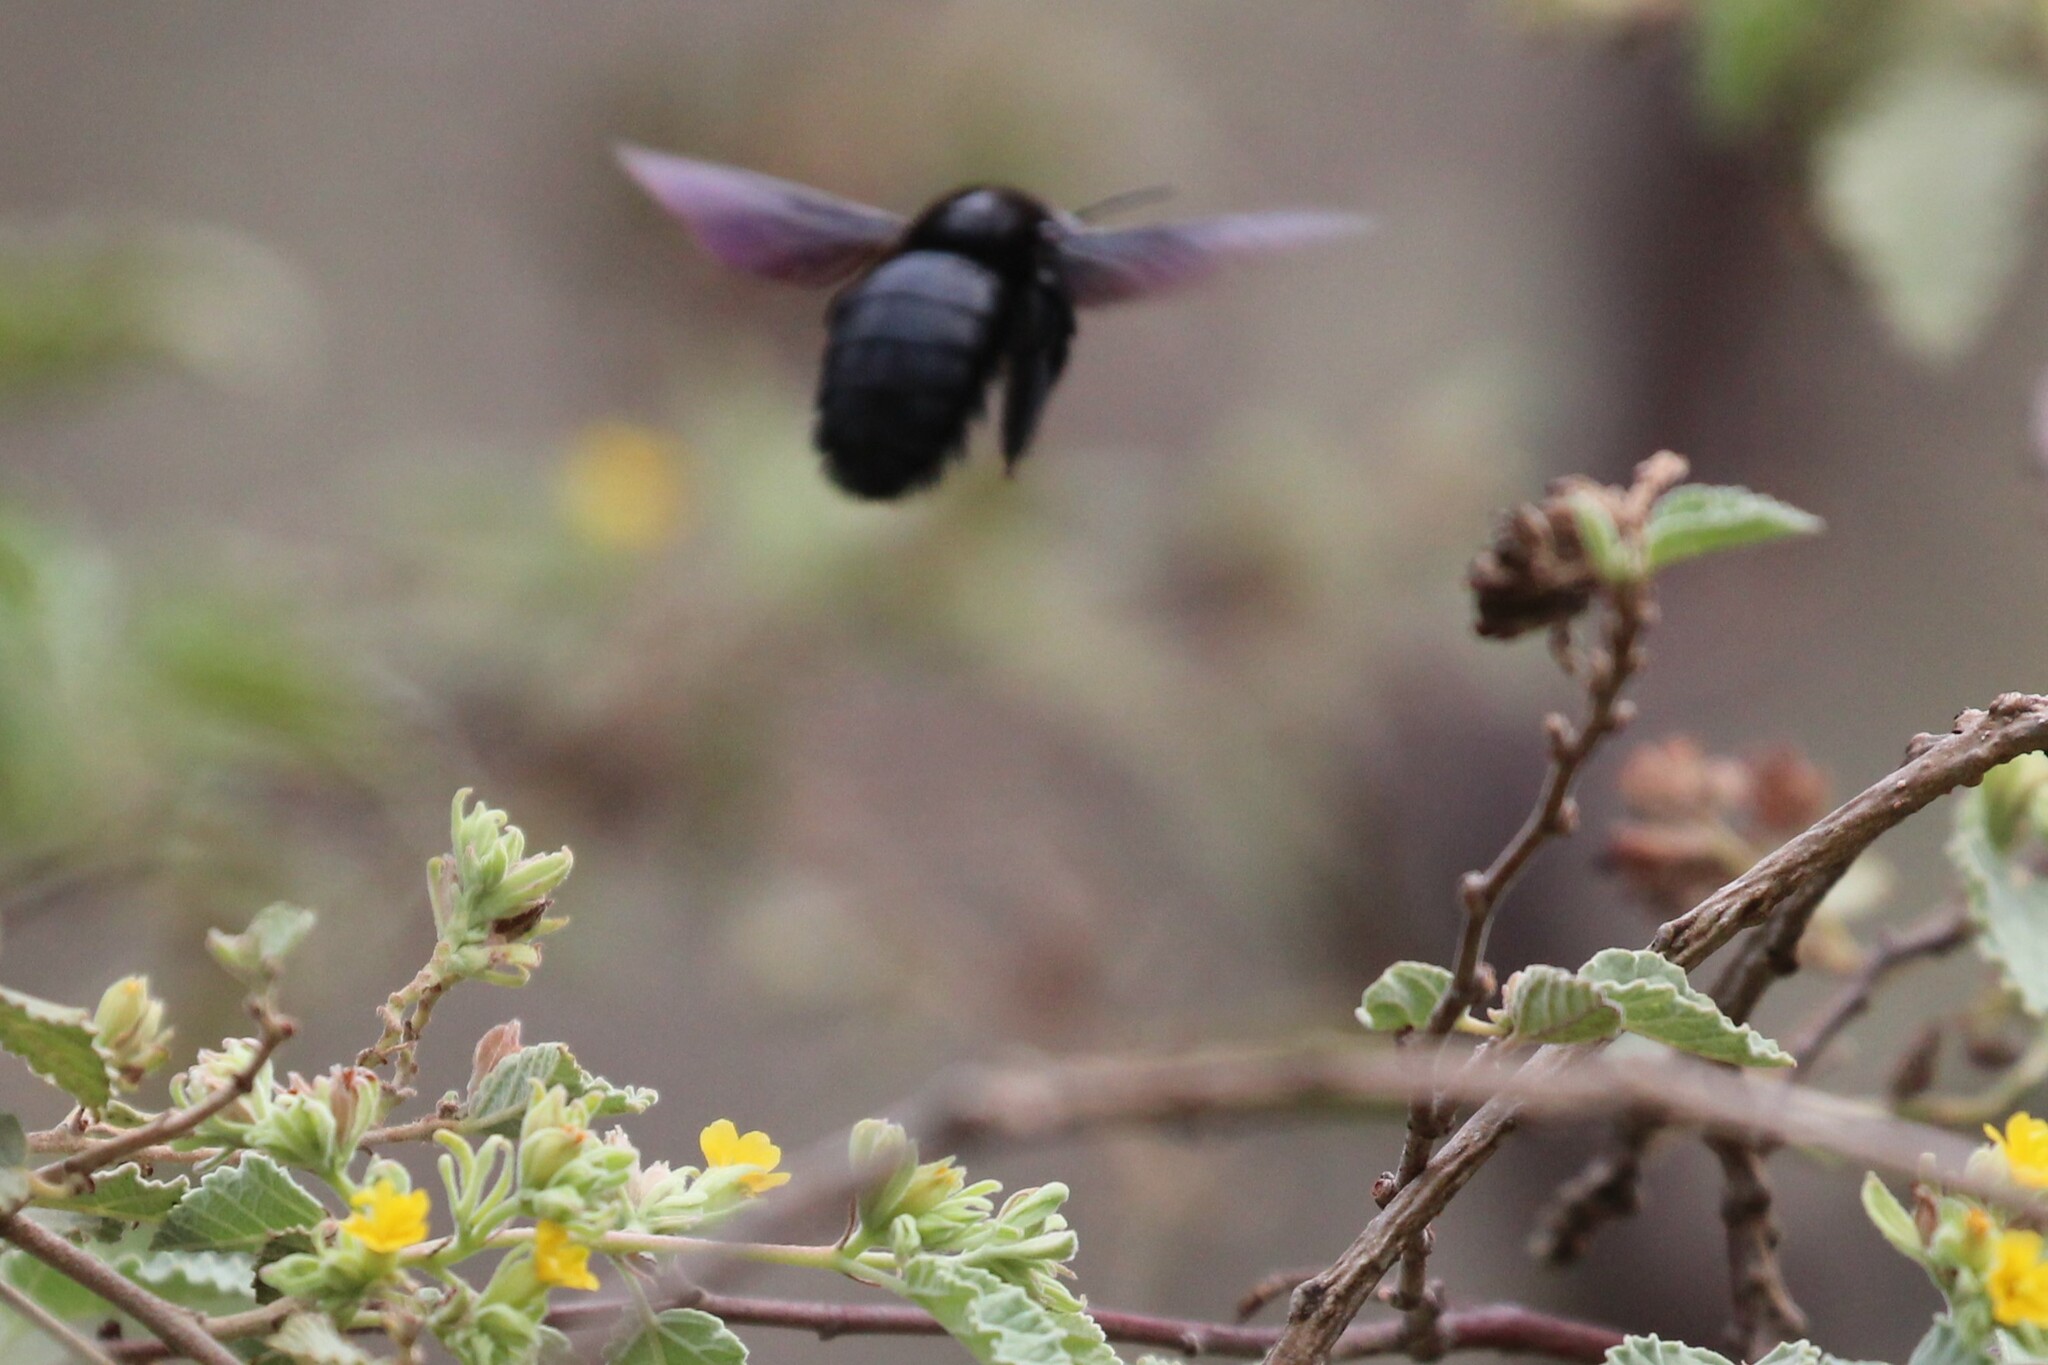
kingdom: Animalia
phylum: Arthropoda
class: Insecta
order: Hymenoptera
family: Apidae
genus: Xylocopa
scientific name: Xylocopa darwini
